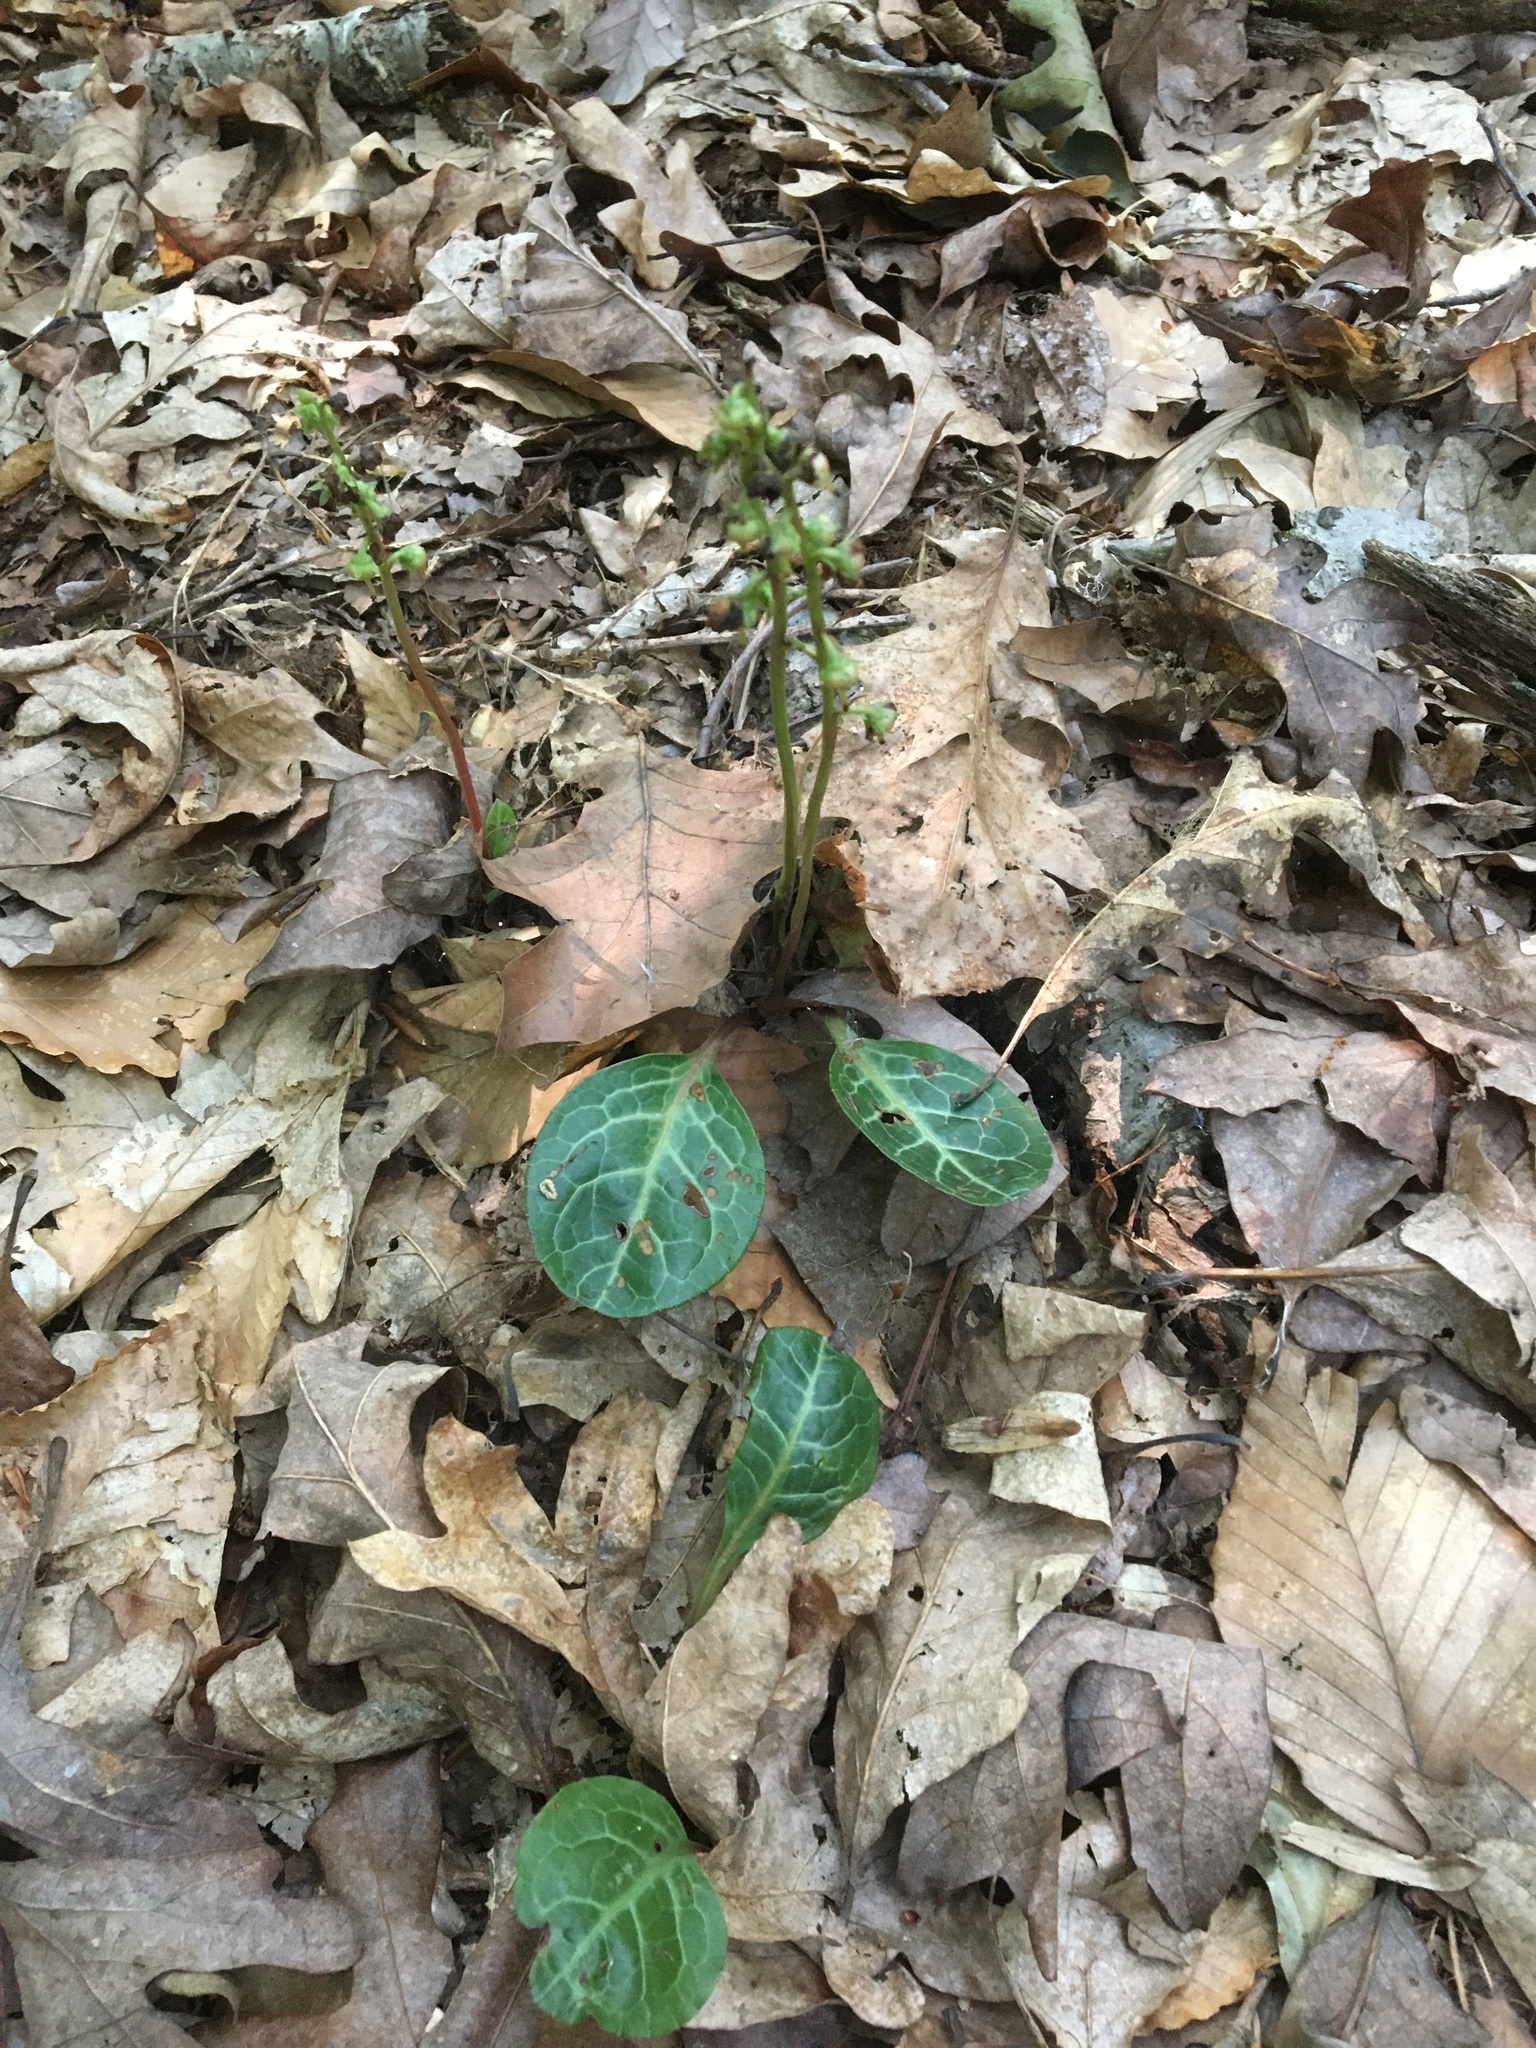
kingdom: Plantae
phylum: Tracheophyta
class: Magnoliopsida
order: Ericales
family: Ericaceae
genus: Pyrola
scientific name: Pyrola americana
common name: American wintergreen
